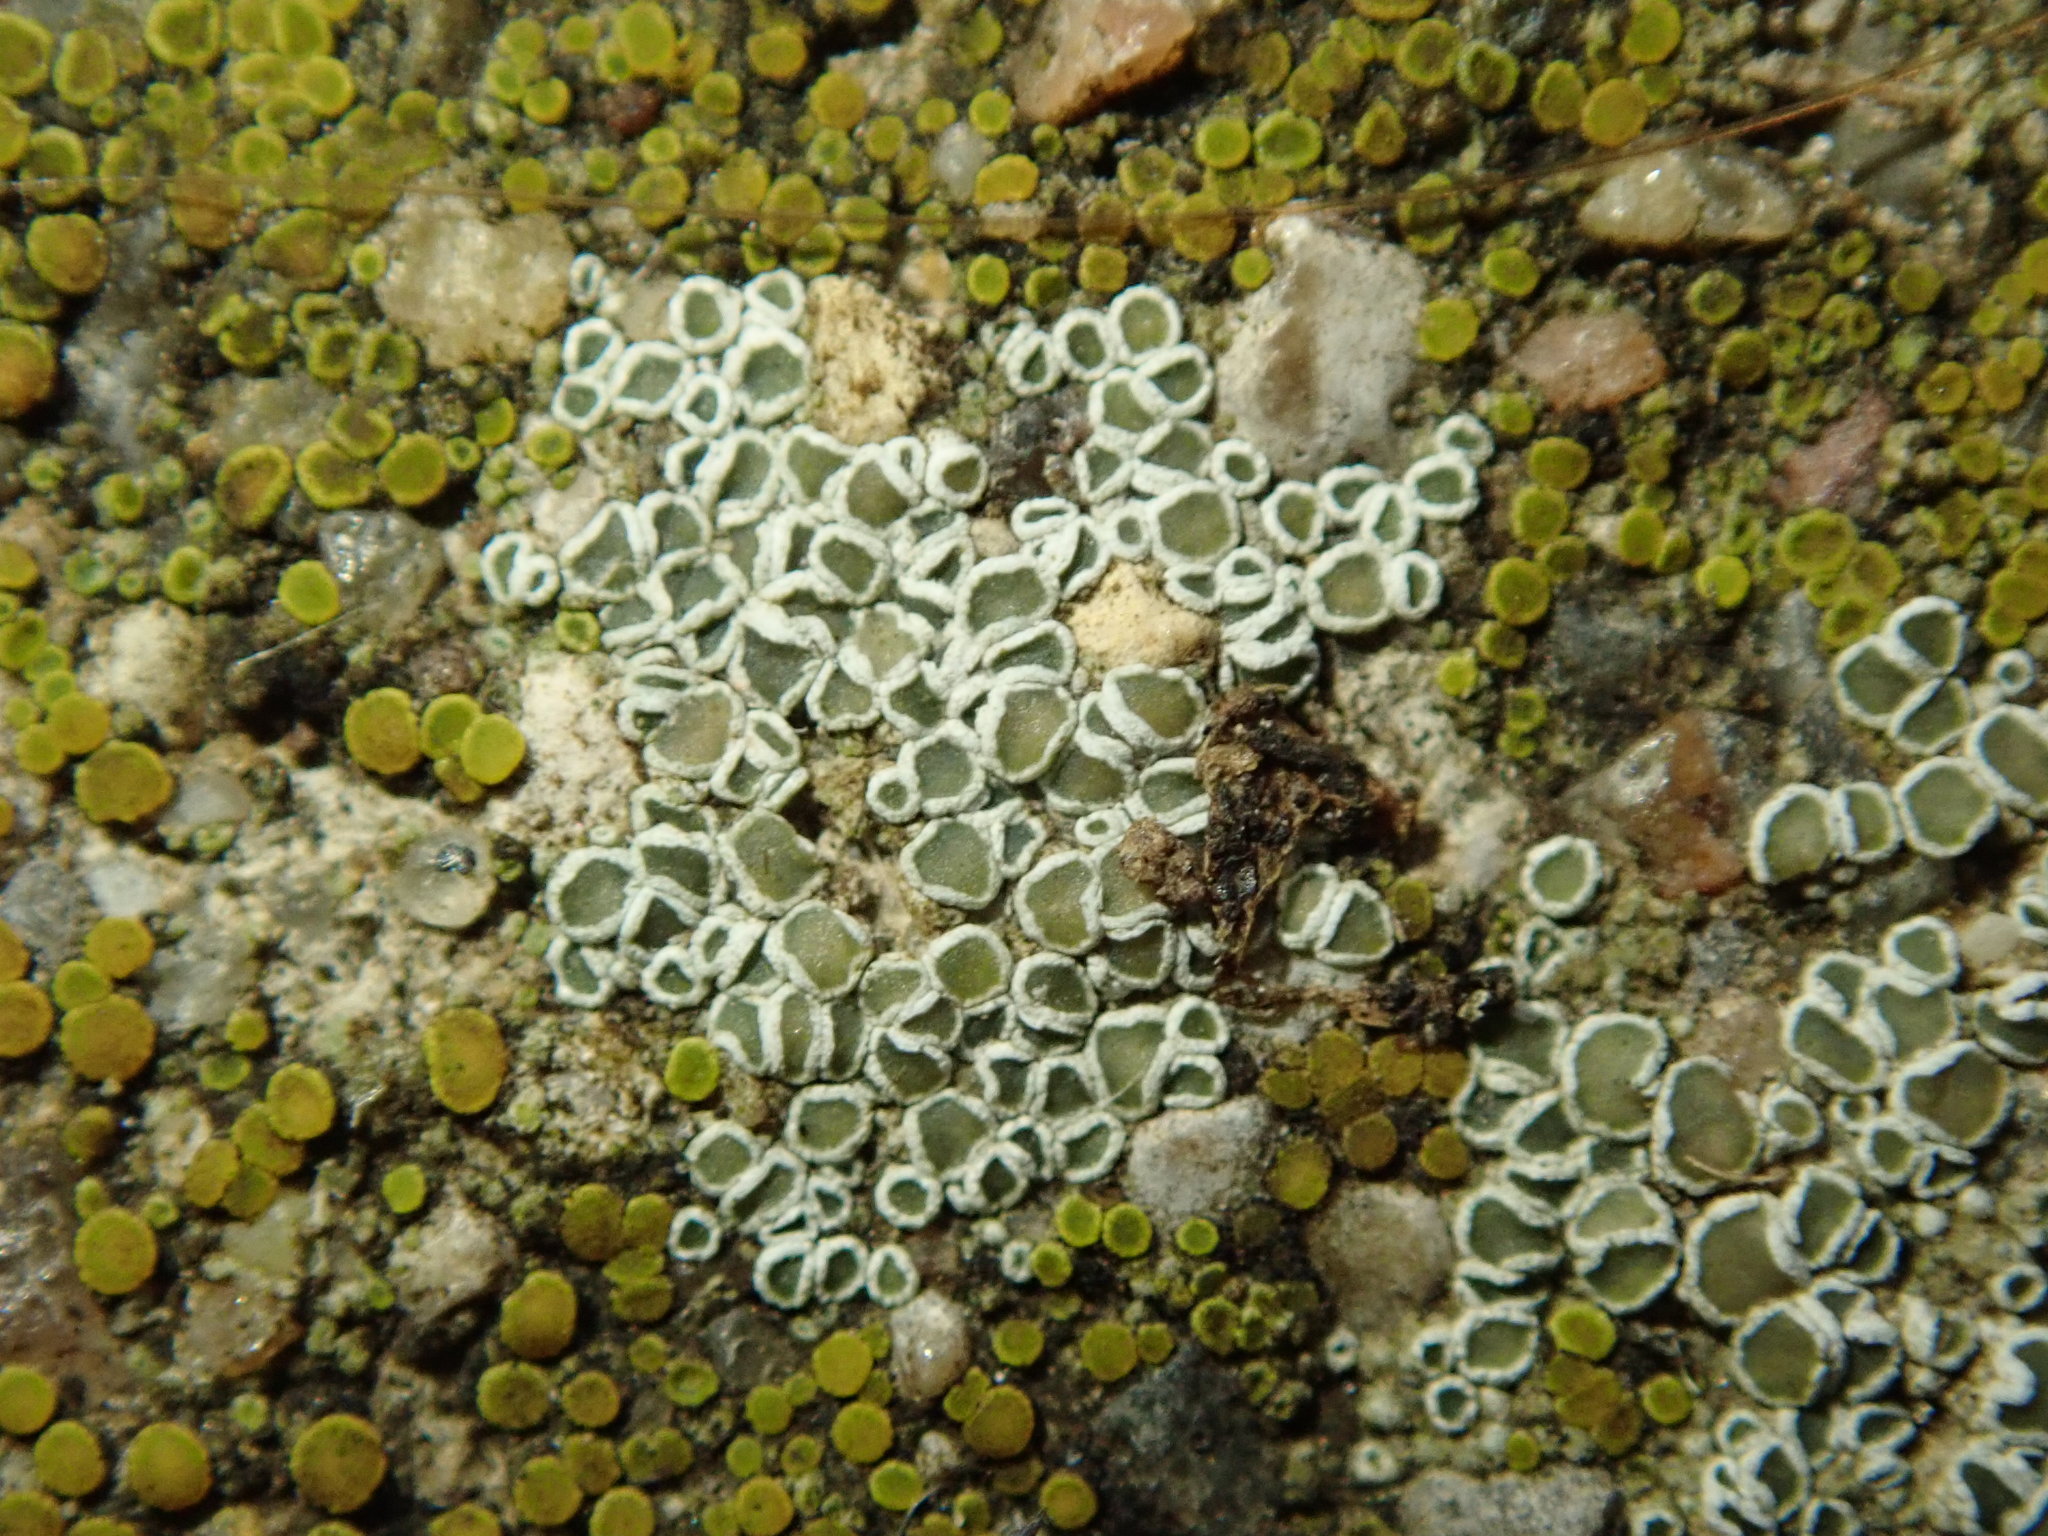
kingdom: Fungi
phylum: Ascomycota
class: Lecanoromycetes
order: Lecanorales
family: Lecanoraceae
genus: Polyozosia
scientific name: Polyozosia dispersa
